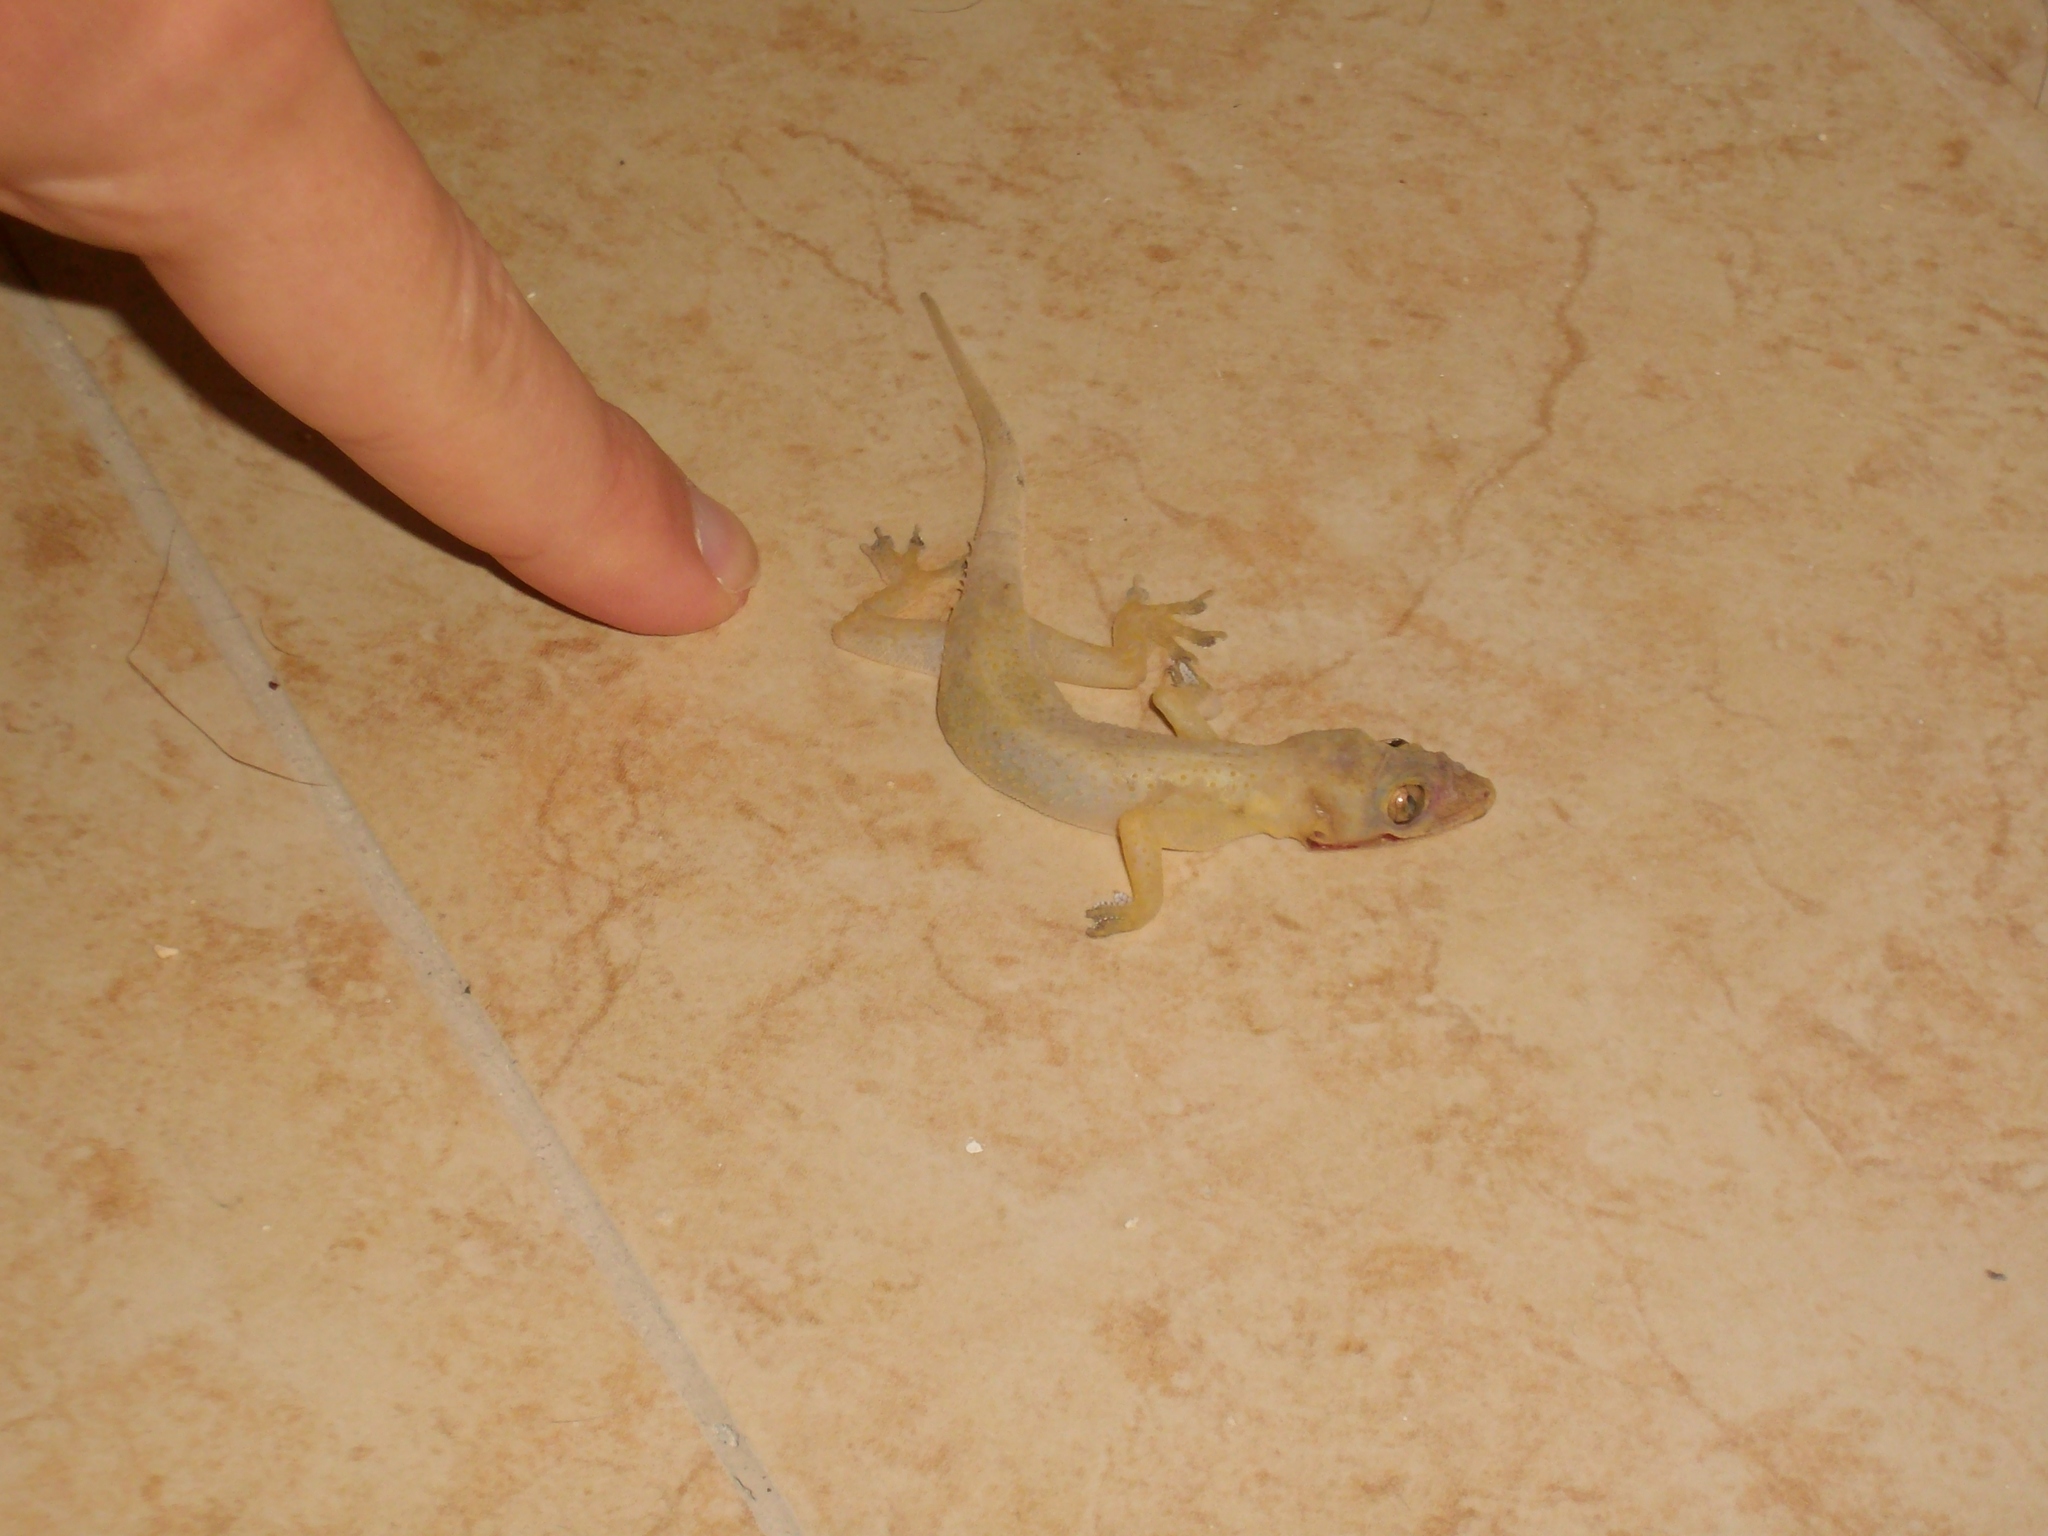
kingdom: Animalia
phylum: Chordata
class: Squamata
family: Gekkonidae
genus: Hemidactylus
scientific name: Hemidactylus mabouia
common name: House gecko
